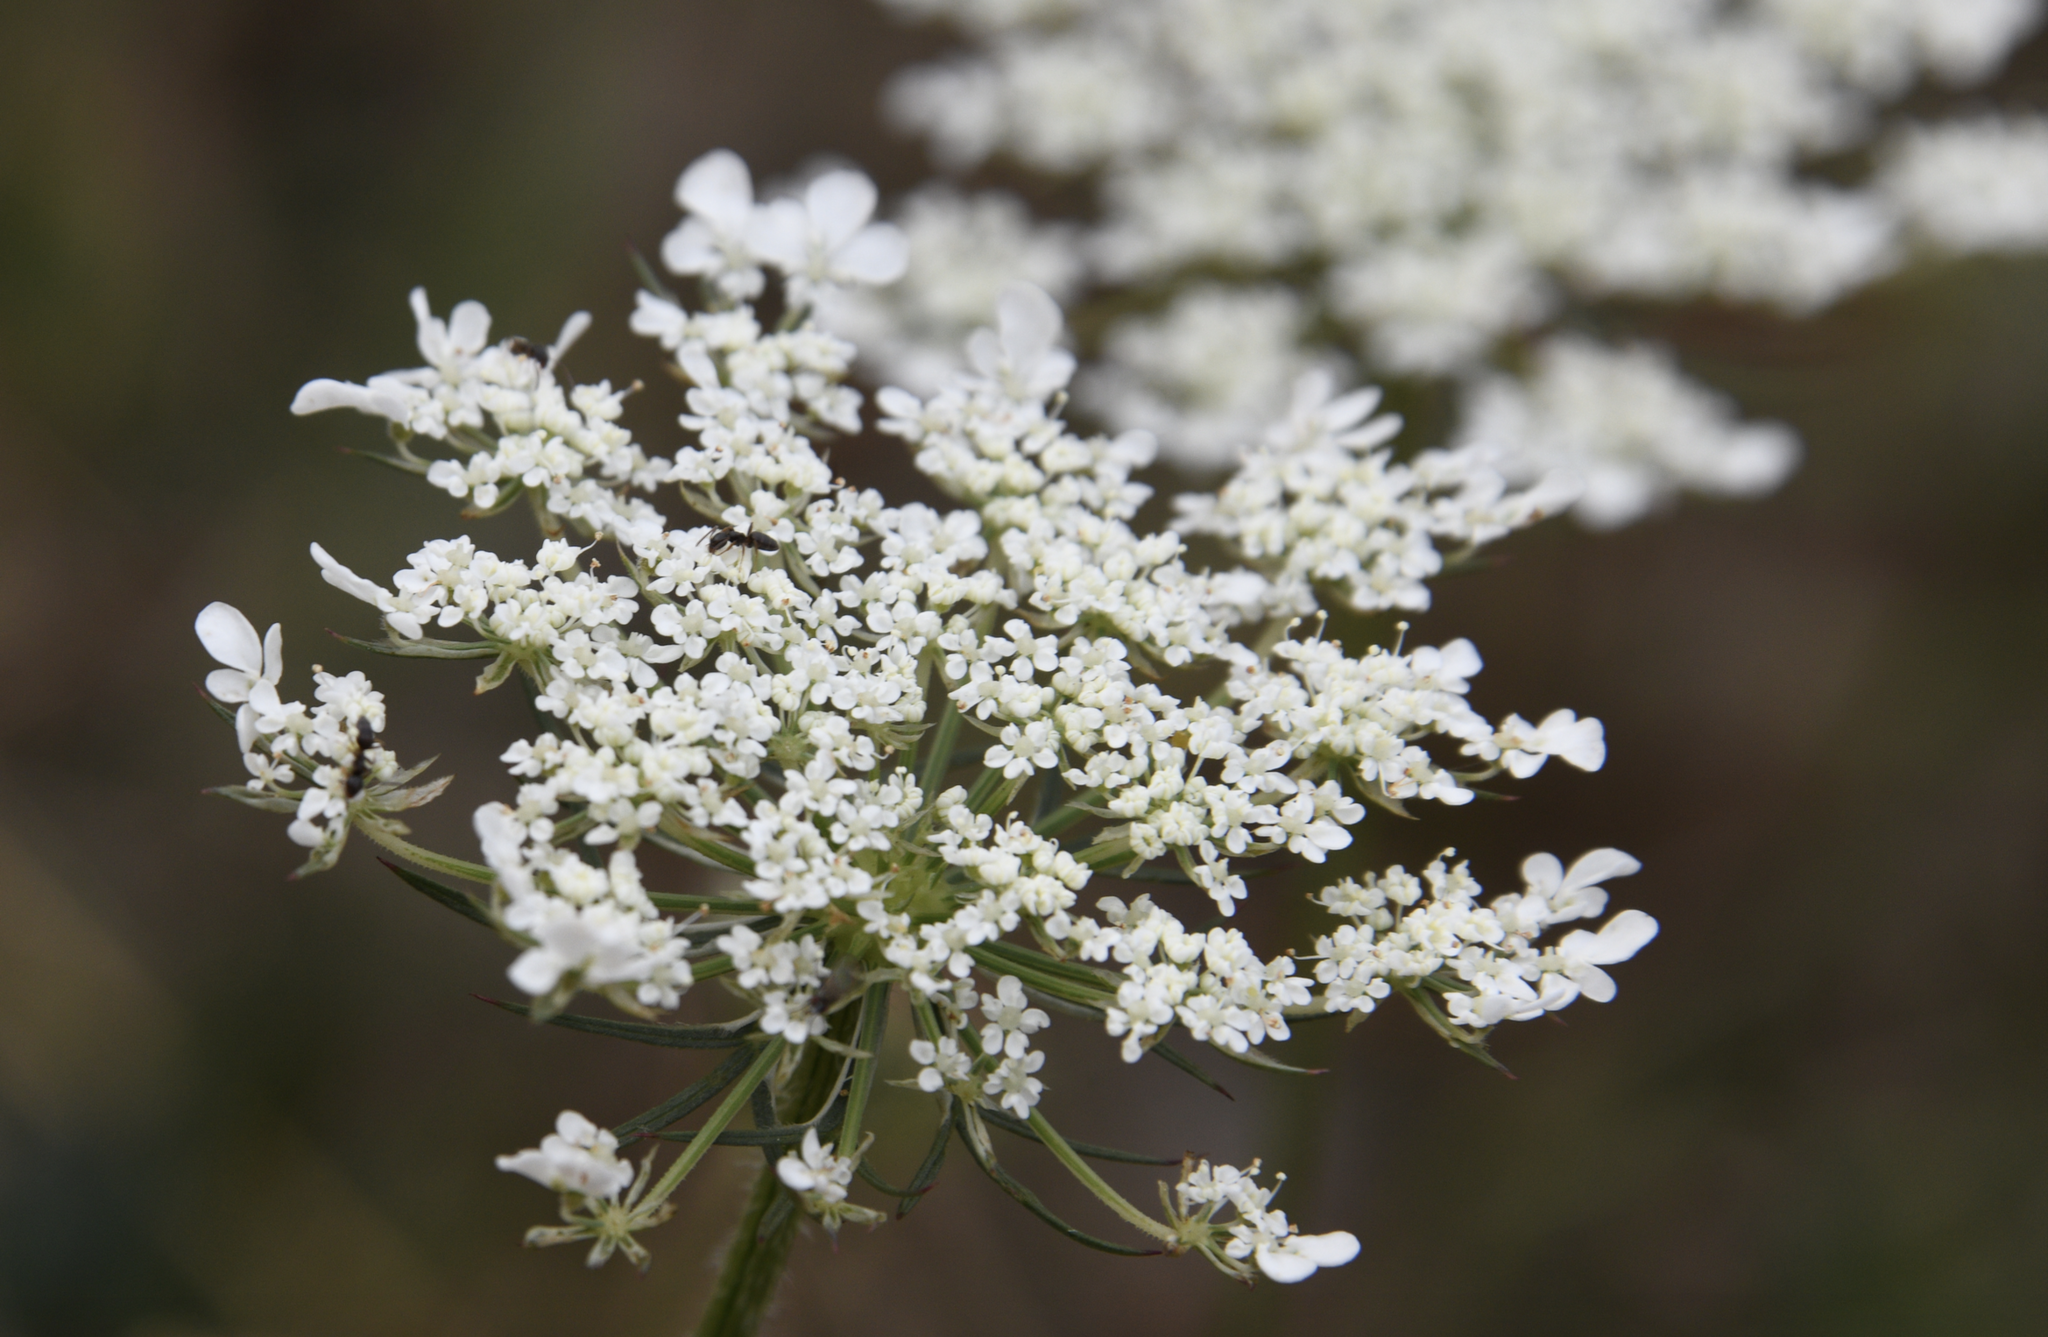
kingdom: Plantae
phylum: Tracheophyta
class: Magnoliopsida
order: Apiales
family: Apiaceae
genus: Daucus
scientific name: Daucus carota
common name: Wild carrot
